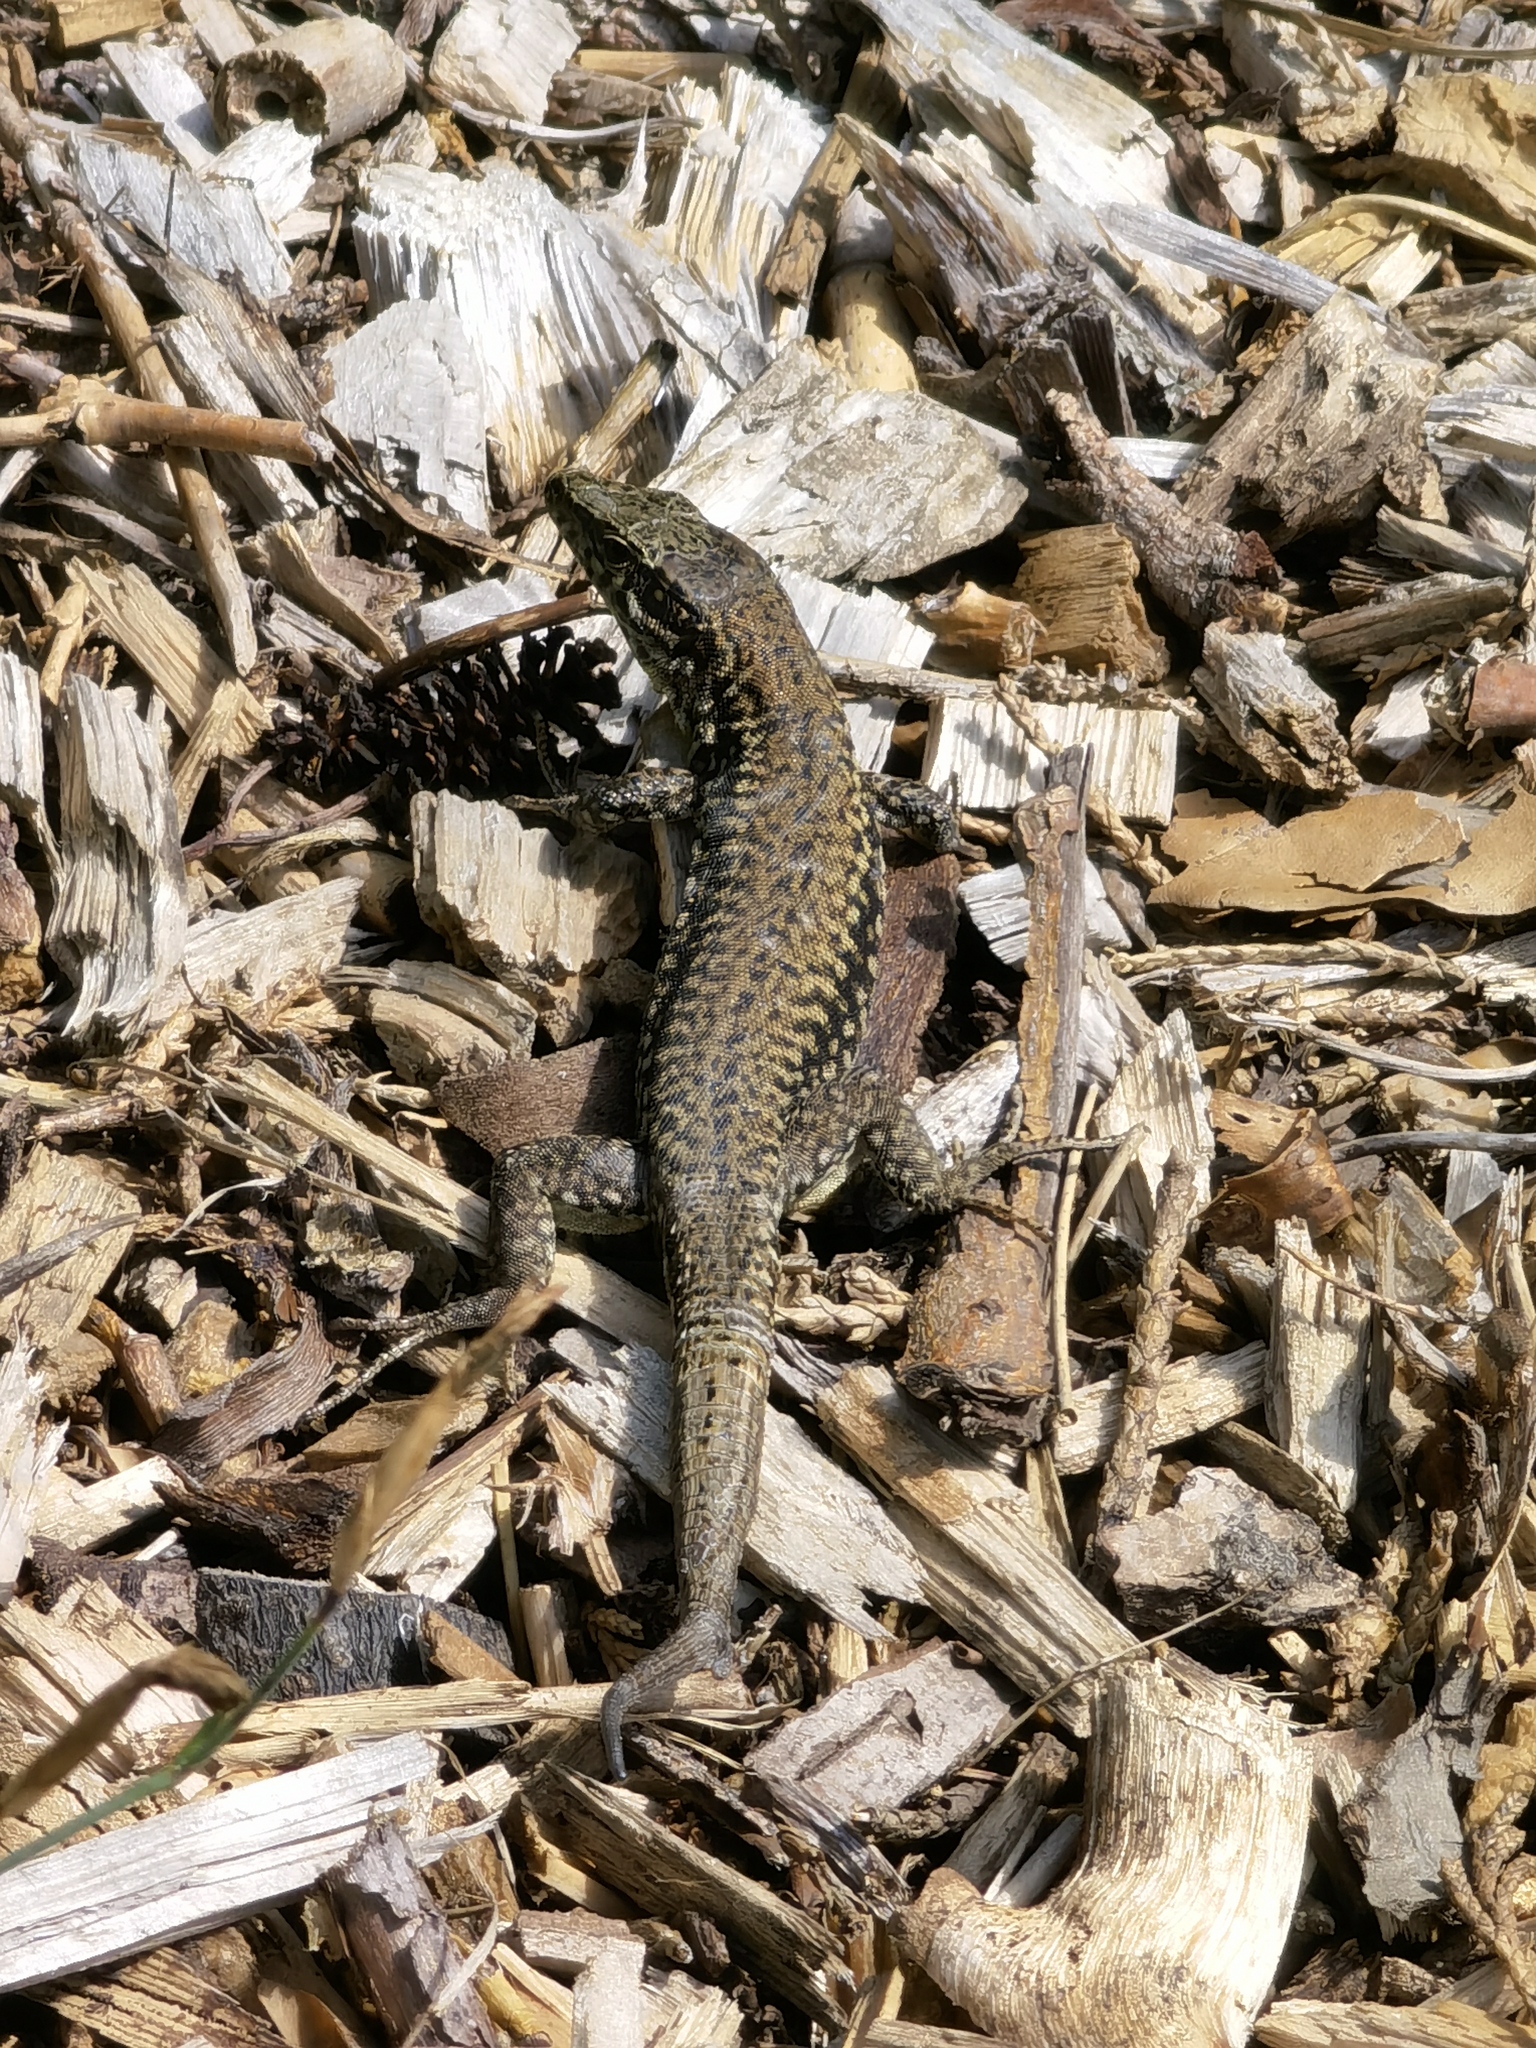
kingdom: Animalia
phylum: Chordata
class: Squamata
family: Lacertidae
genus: Podarcis
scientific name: Podarcis muralis
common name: Common wall lizard
